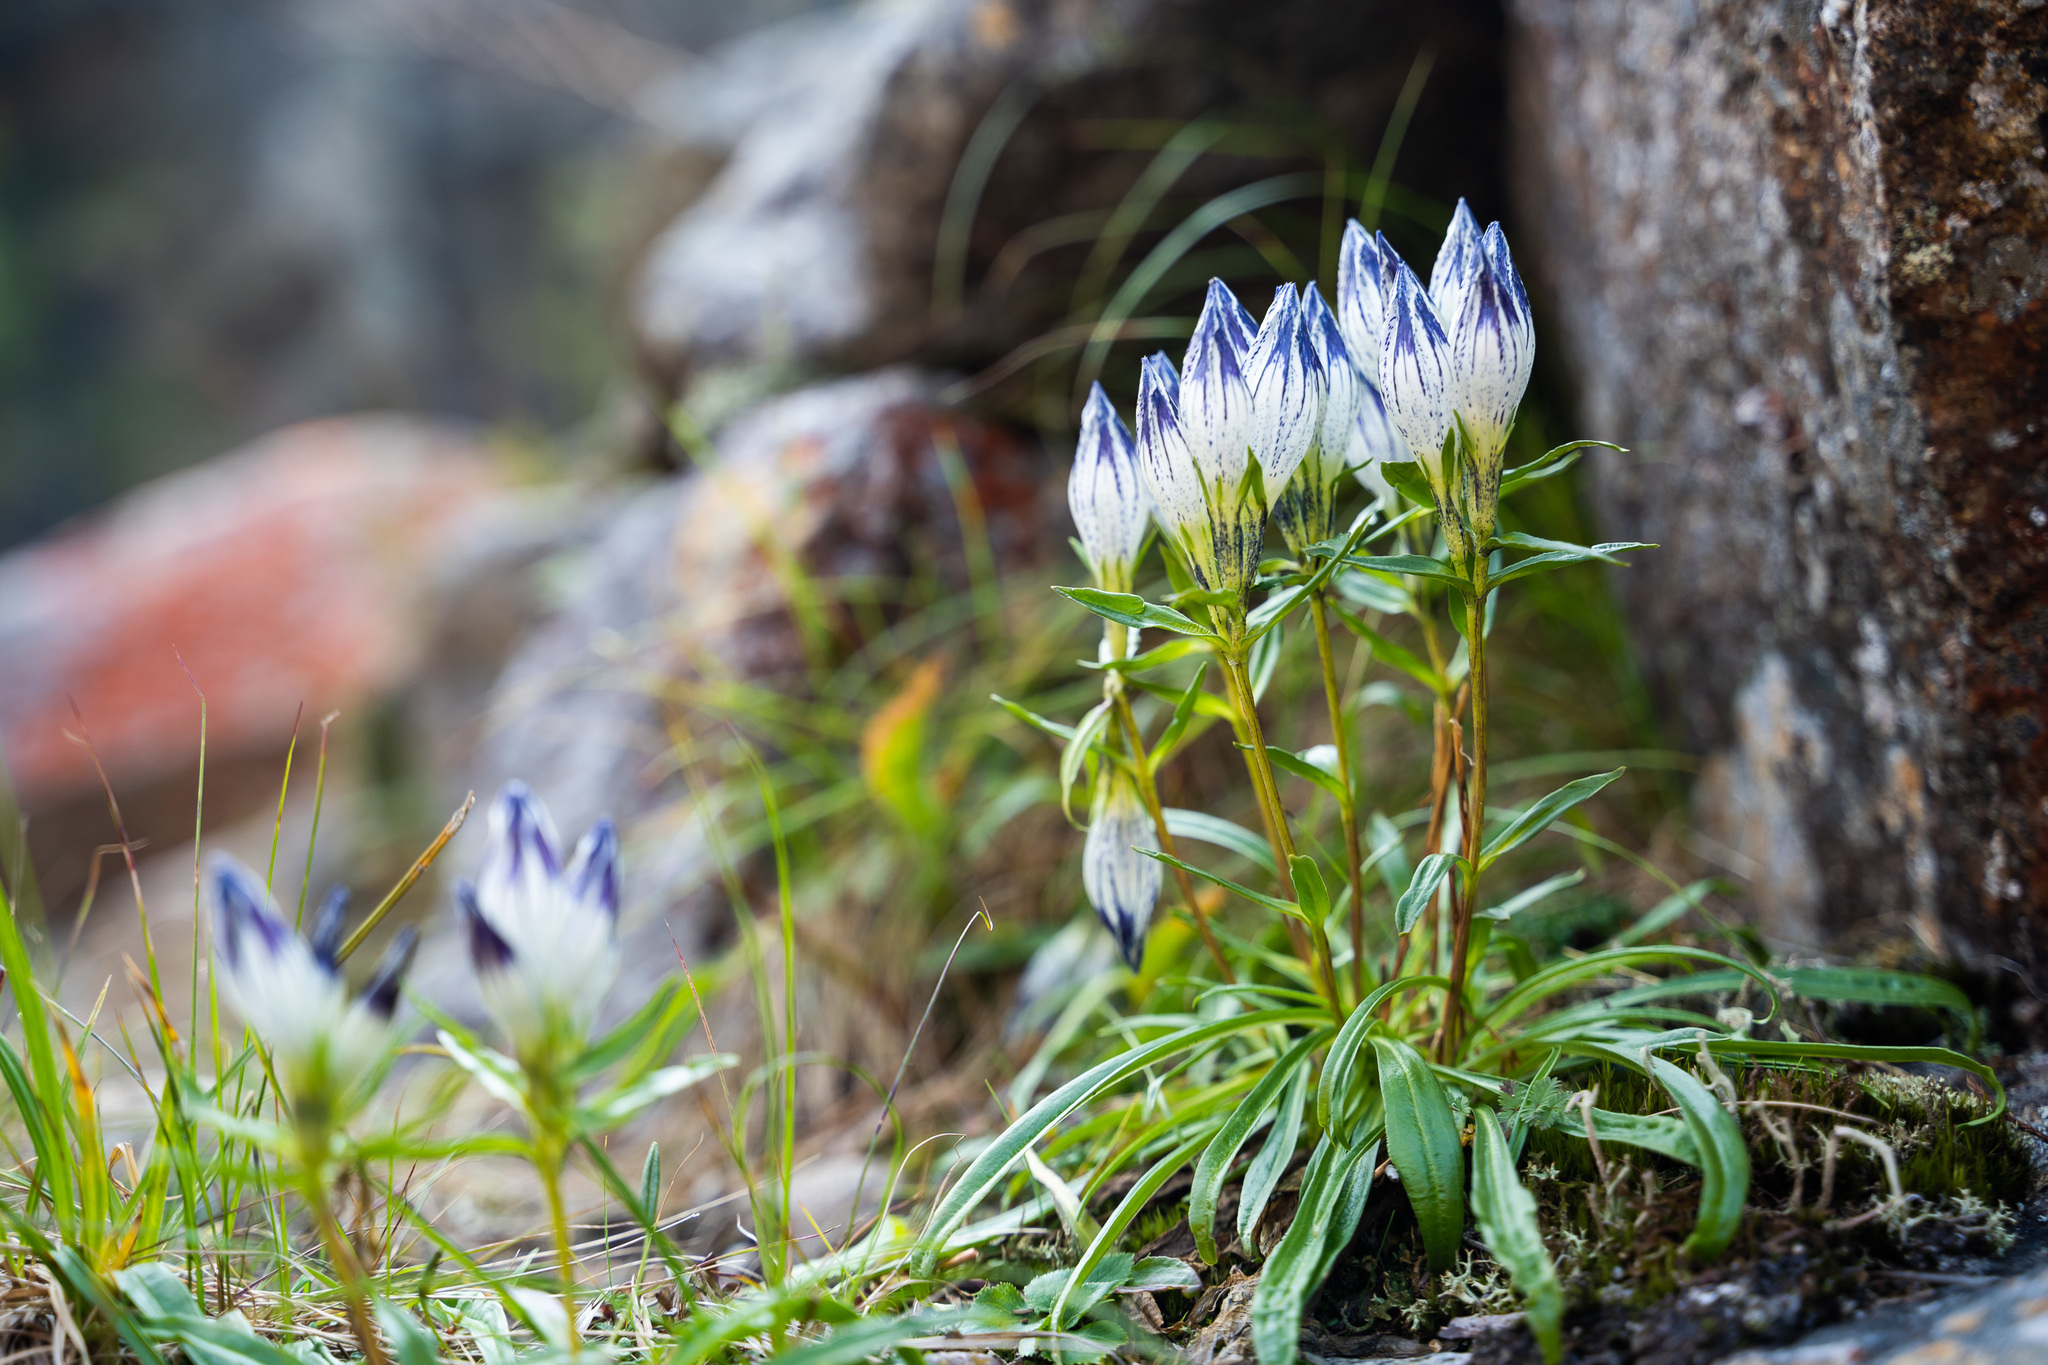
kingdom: Plantae
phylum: Tracheophyta
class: Magnoliopsida
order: Gentianales
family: Gentianaceae
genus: Gentiana
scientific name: Gentiana algida
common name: Arctic gentian
